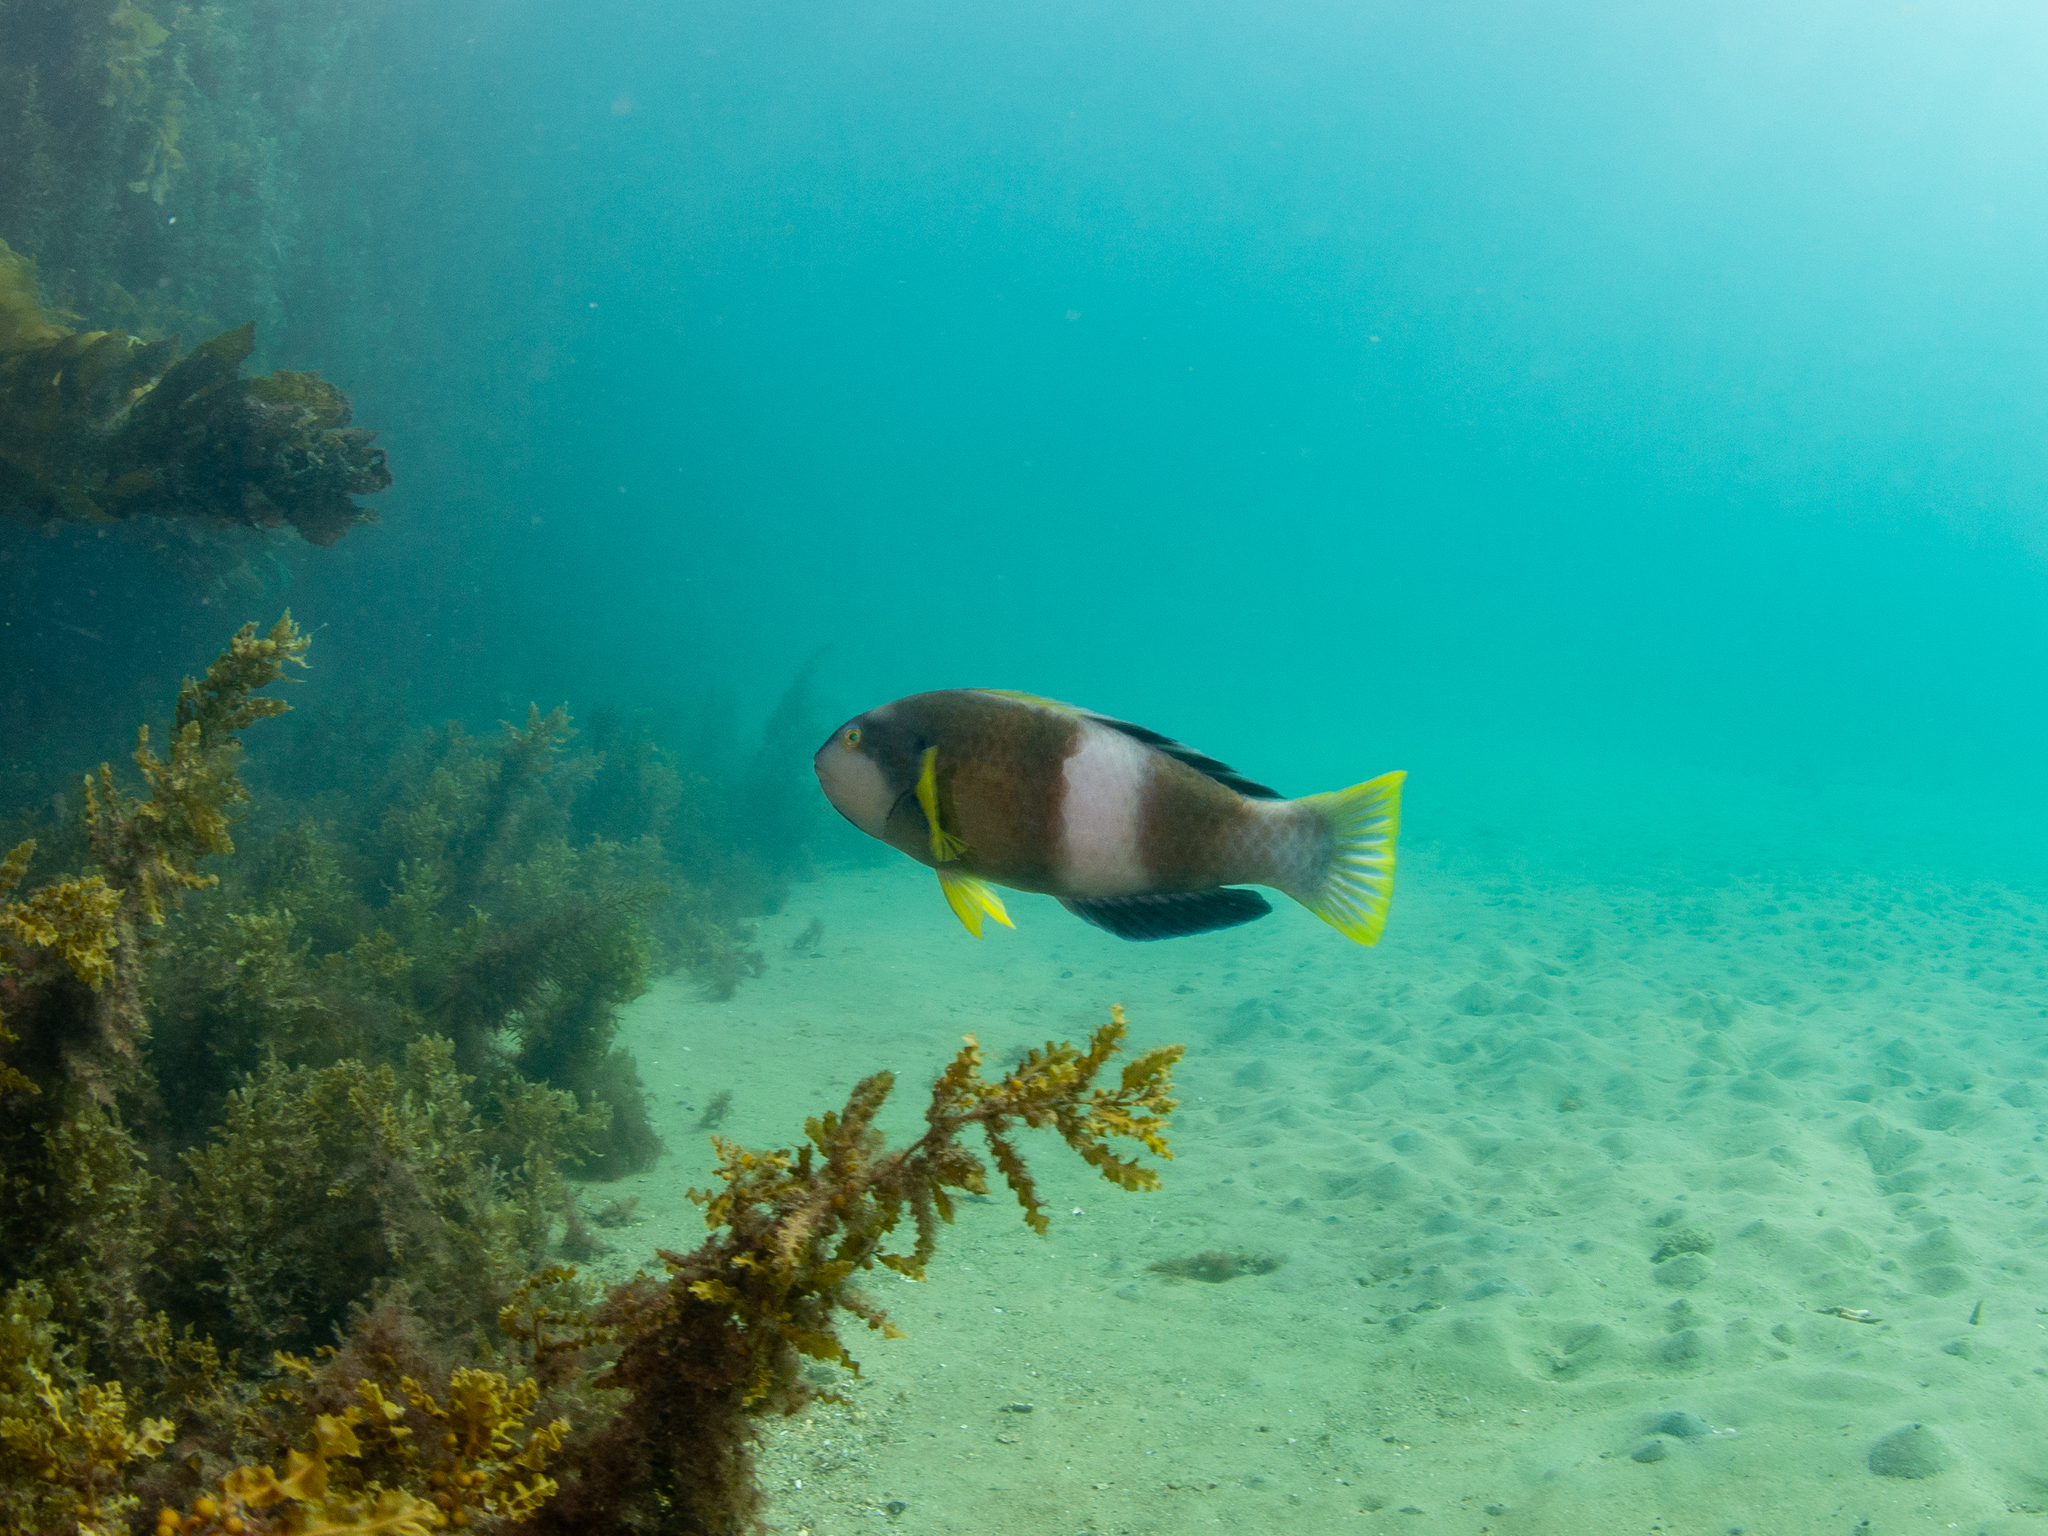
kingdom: Animalia
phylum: Chordata
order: Perciformes
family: Labridae
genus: Notolabrus
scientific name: Notolabrus tetricus
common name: Blue-throated parrotfish
